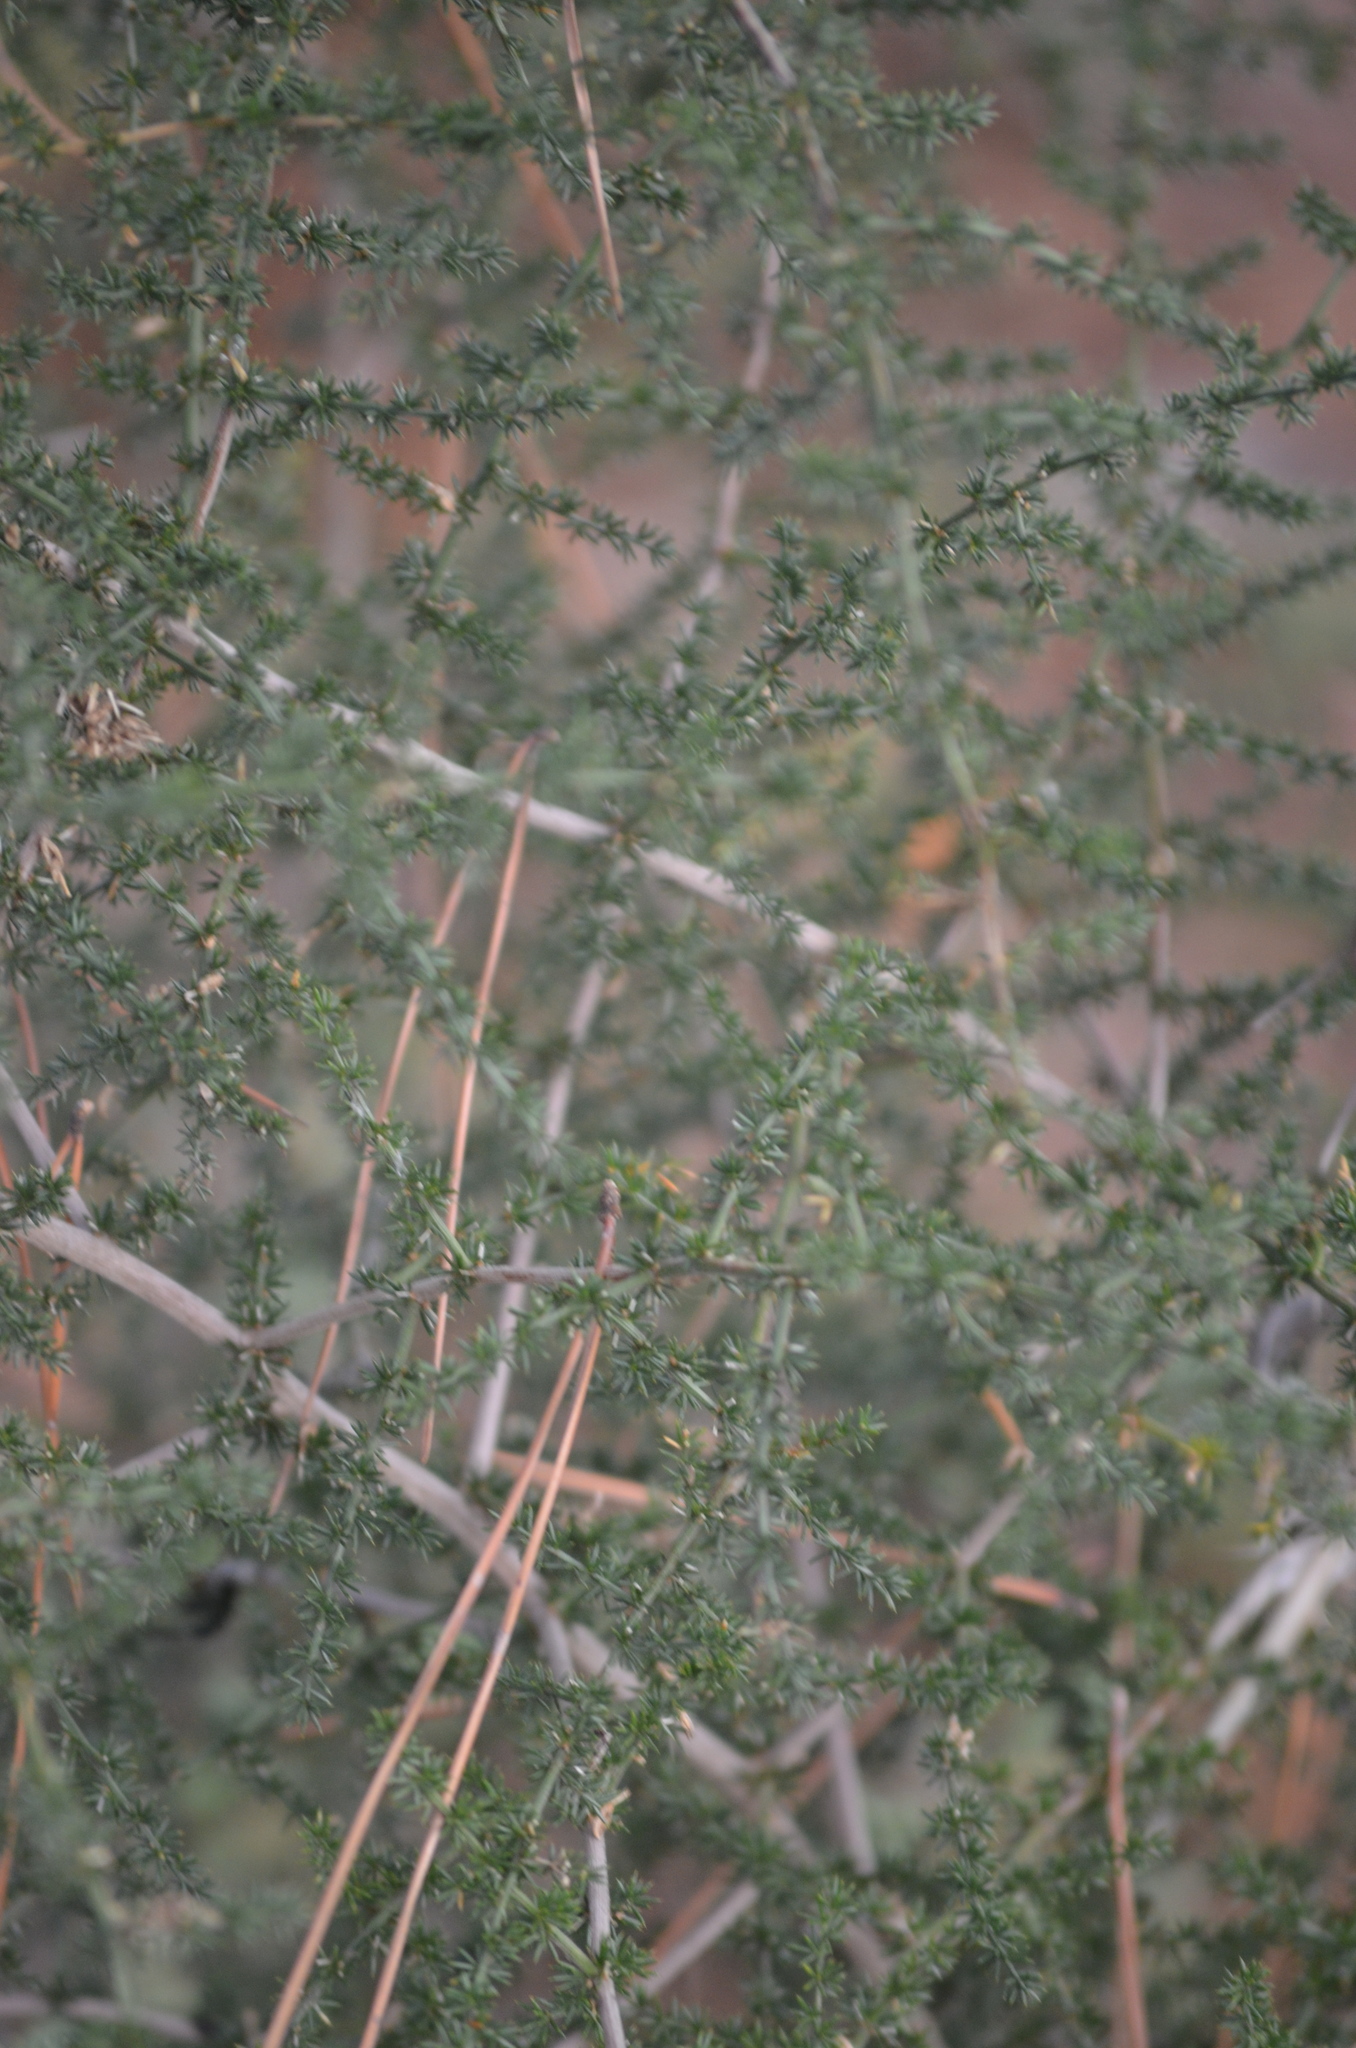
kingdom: Plantae
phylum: Tracheophyta
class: Liliopsida
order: Asparagales
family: Asparagaceae
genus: Asparagus
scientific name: Asparagus acutifolius
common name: Wild asparagus
